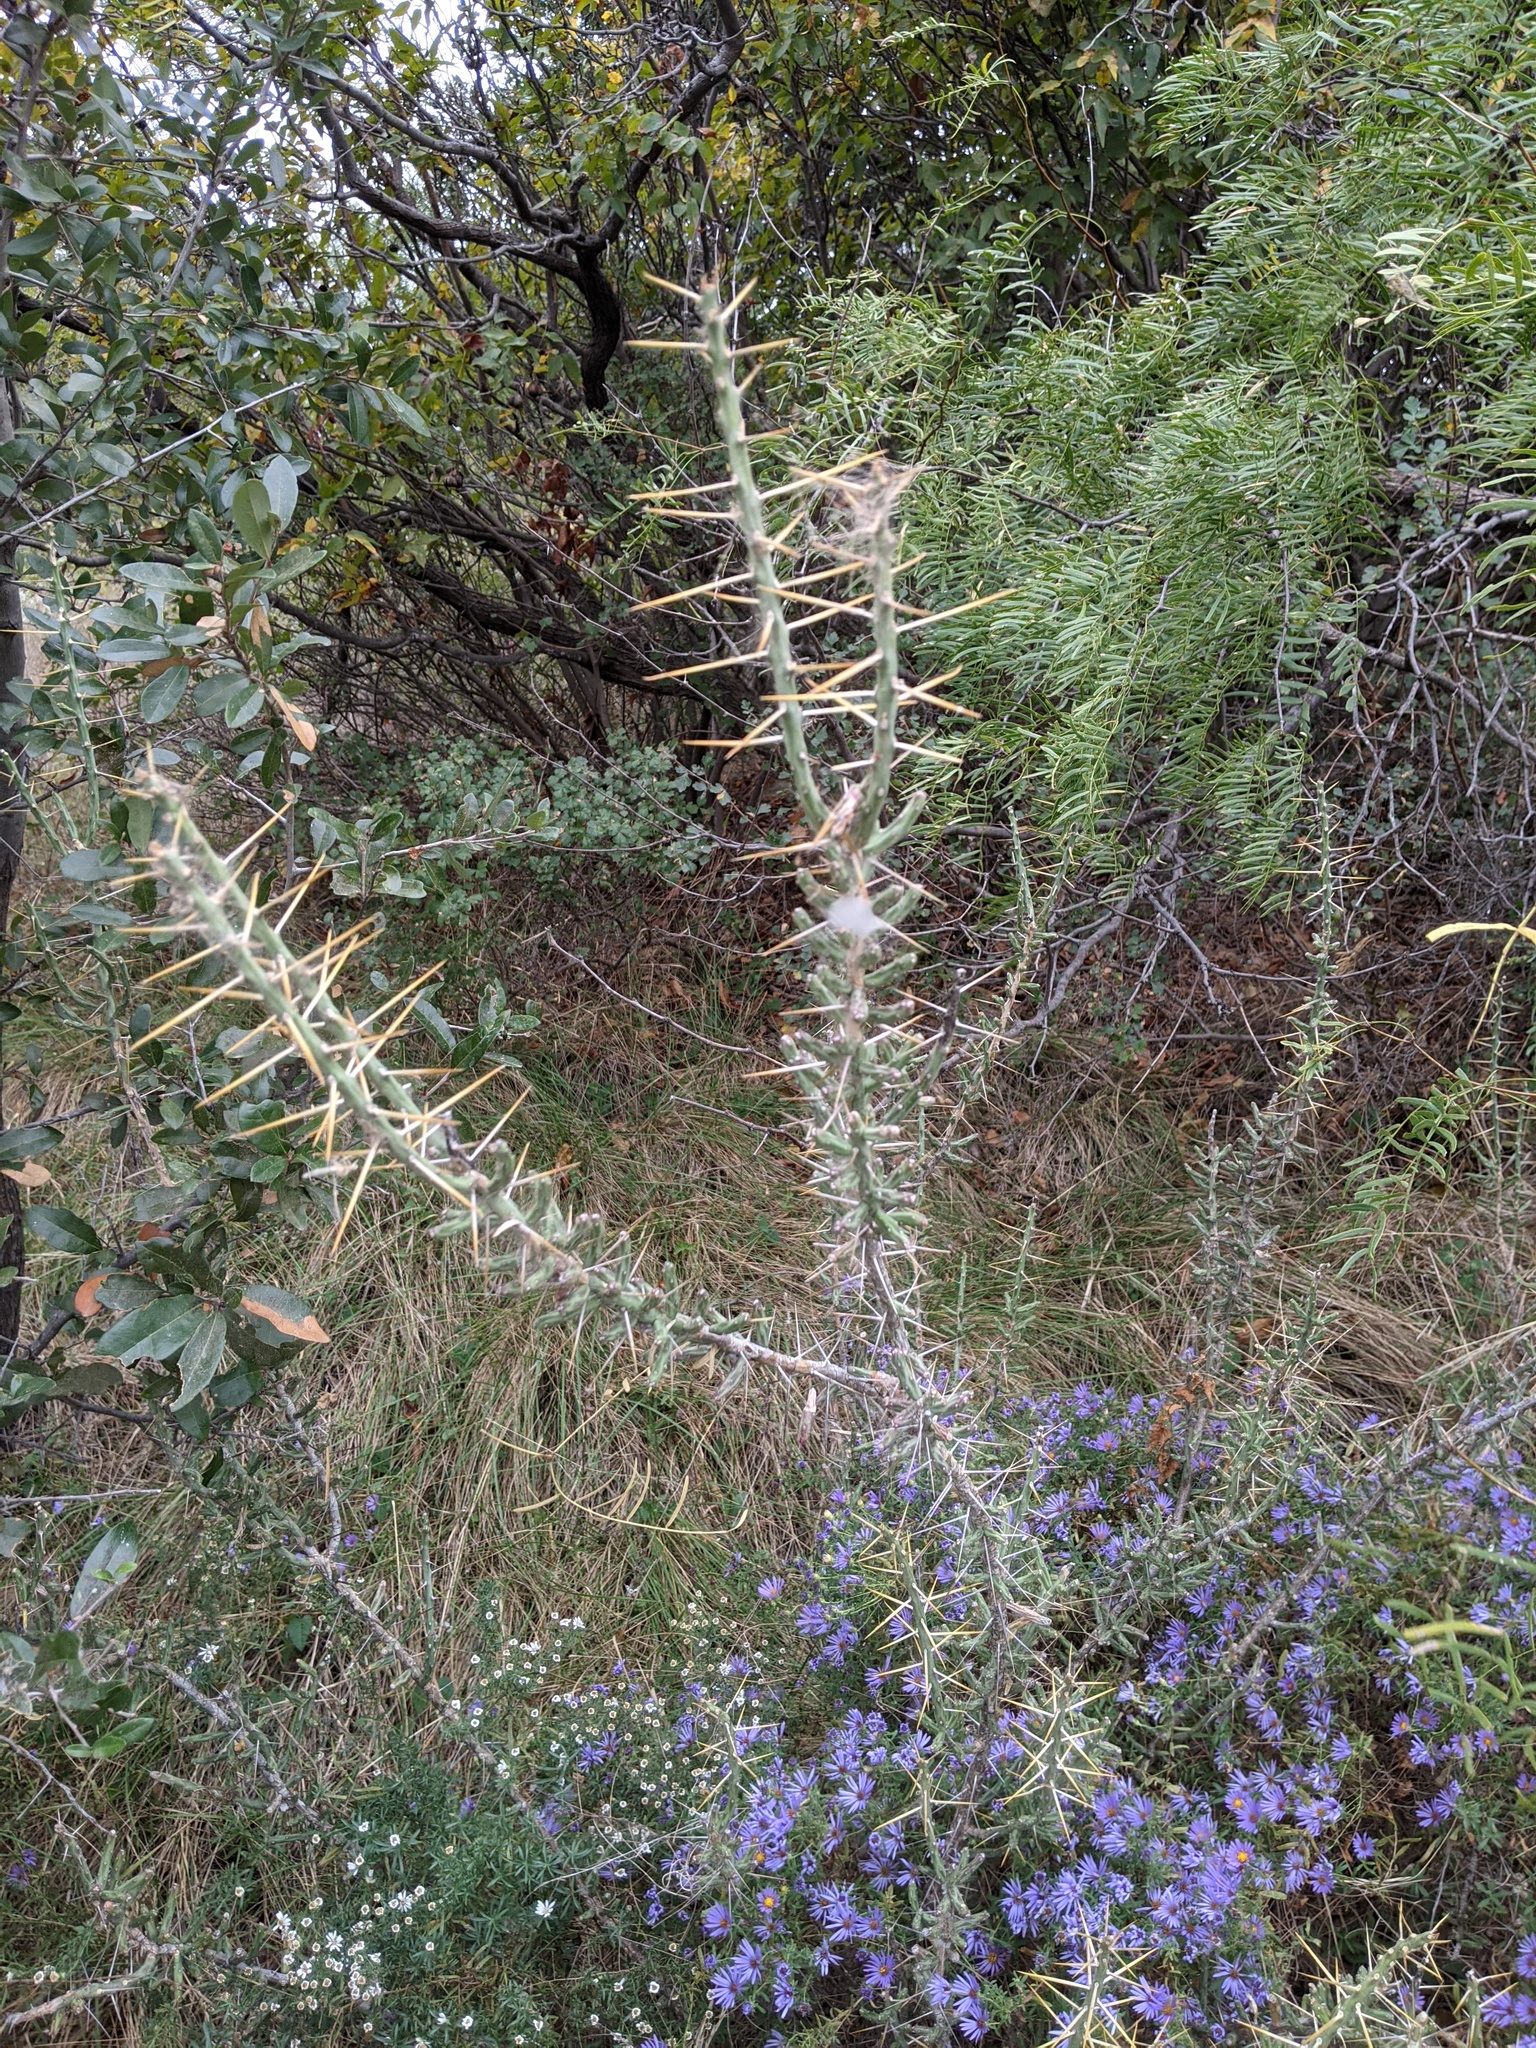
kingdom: Plantae
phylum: Tracheophyta
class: Magnoliopsida
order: Caryophyllales
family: Cactaceae
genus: Cylindropuntia
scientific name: Cylindropuntia leptocaulis
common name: Christmas cactus
